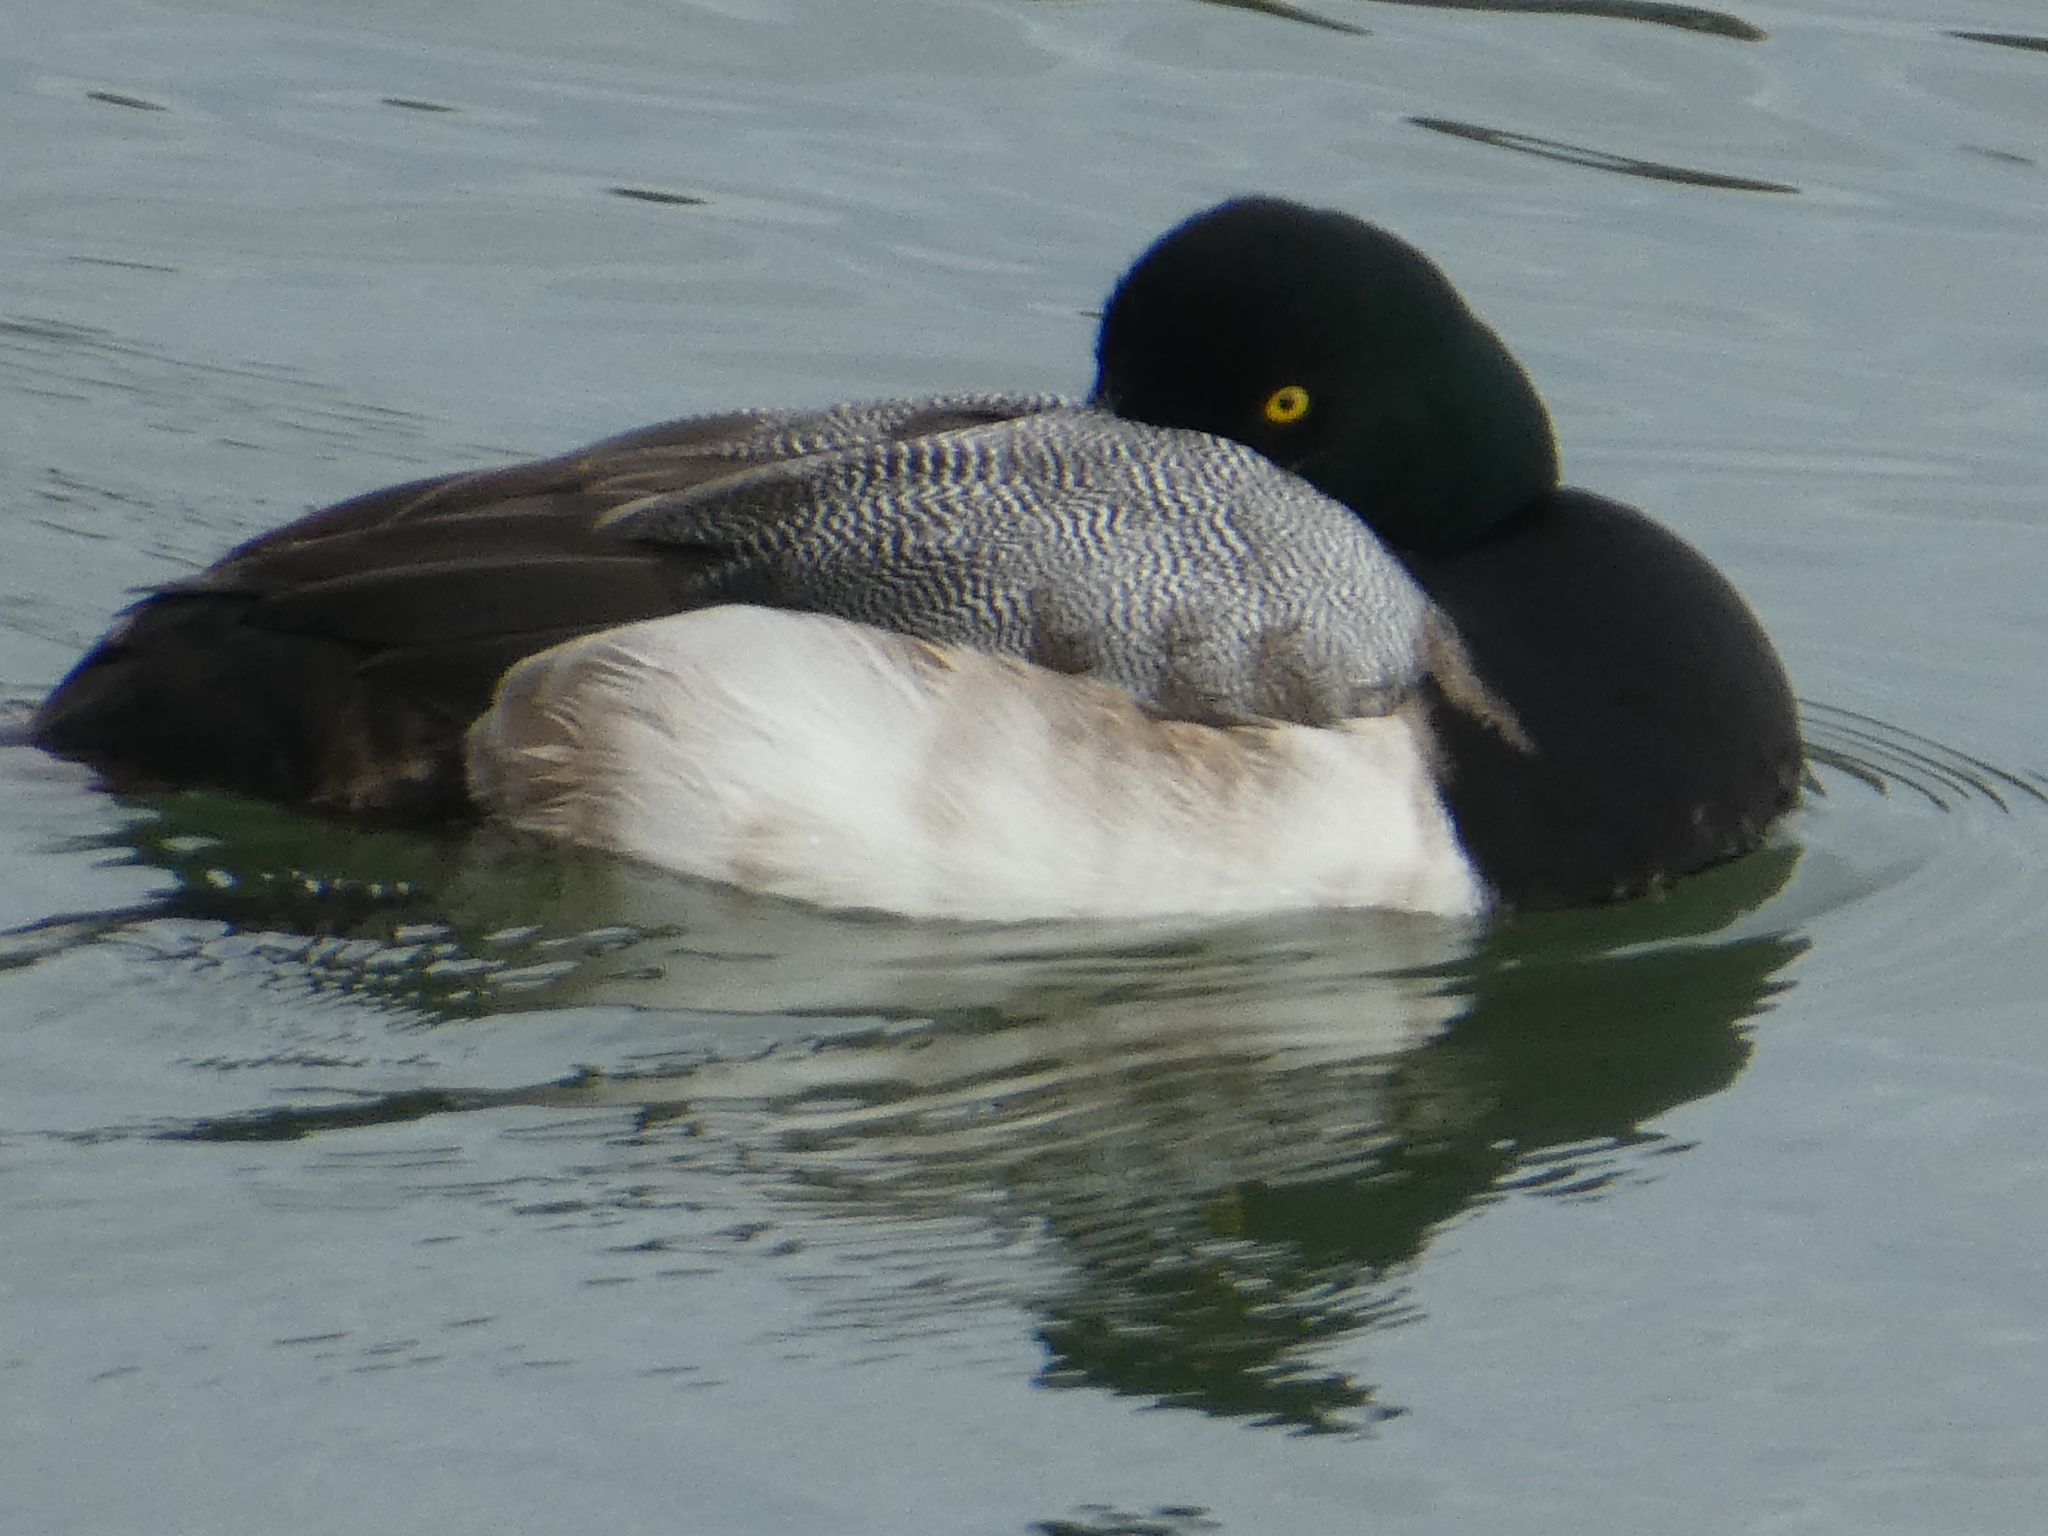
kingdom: Animalia
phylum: Chordata
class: Aves
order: Anseriformes
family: Anatidae
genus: Aythya
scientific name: Aythya marila
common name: Greater scaup
